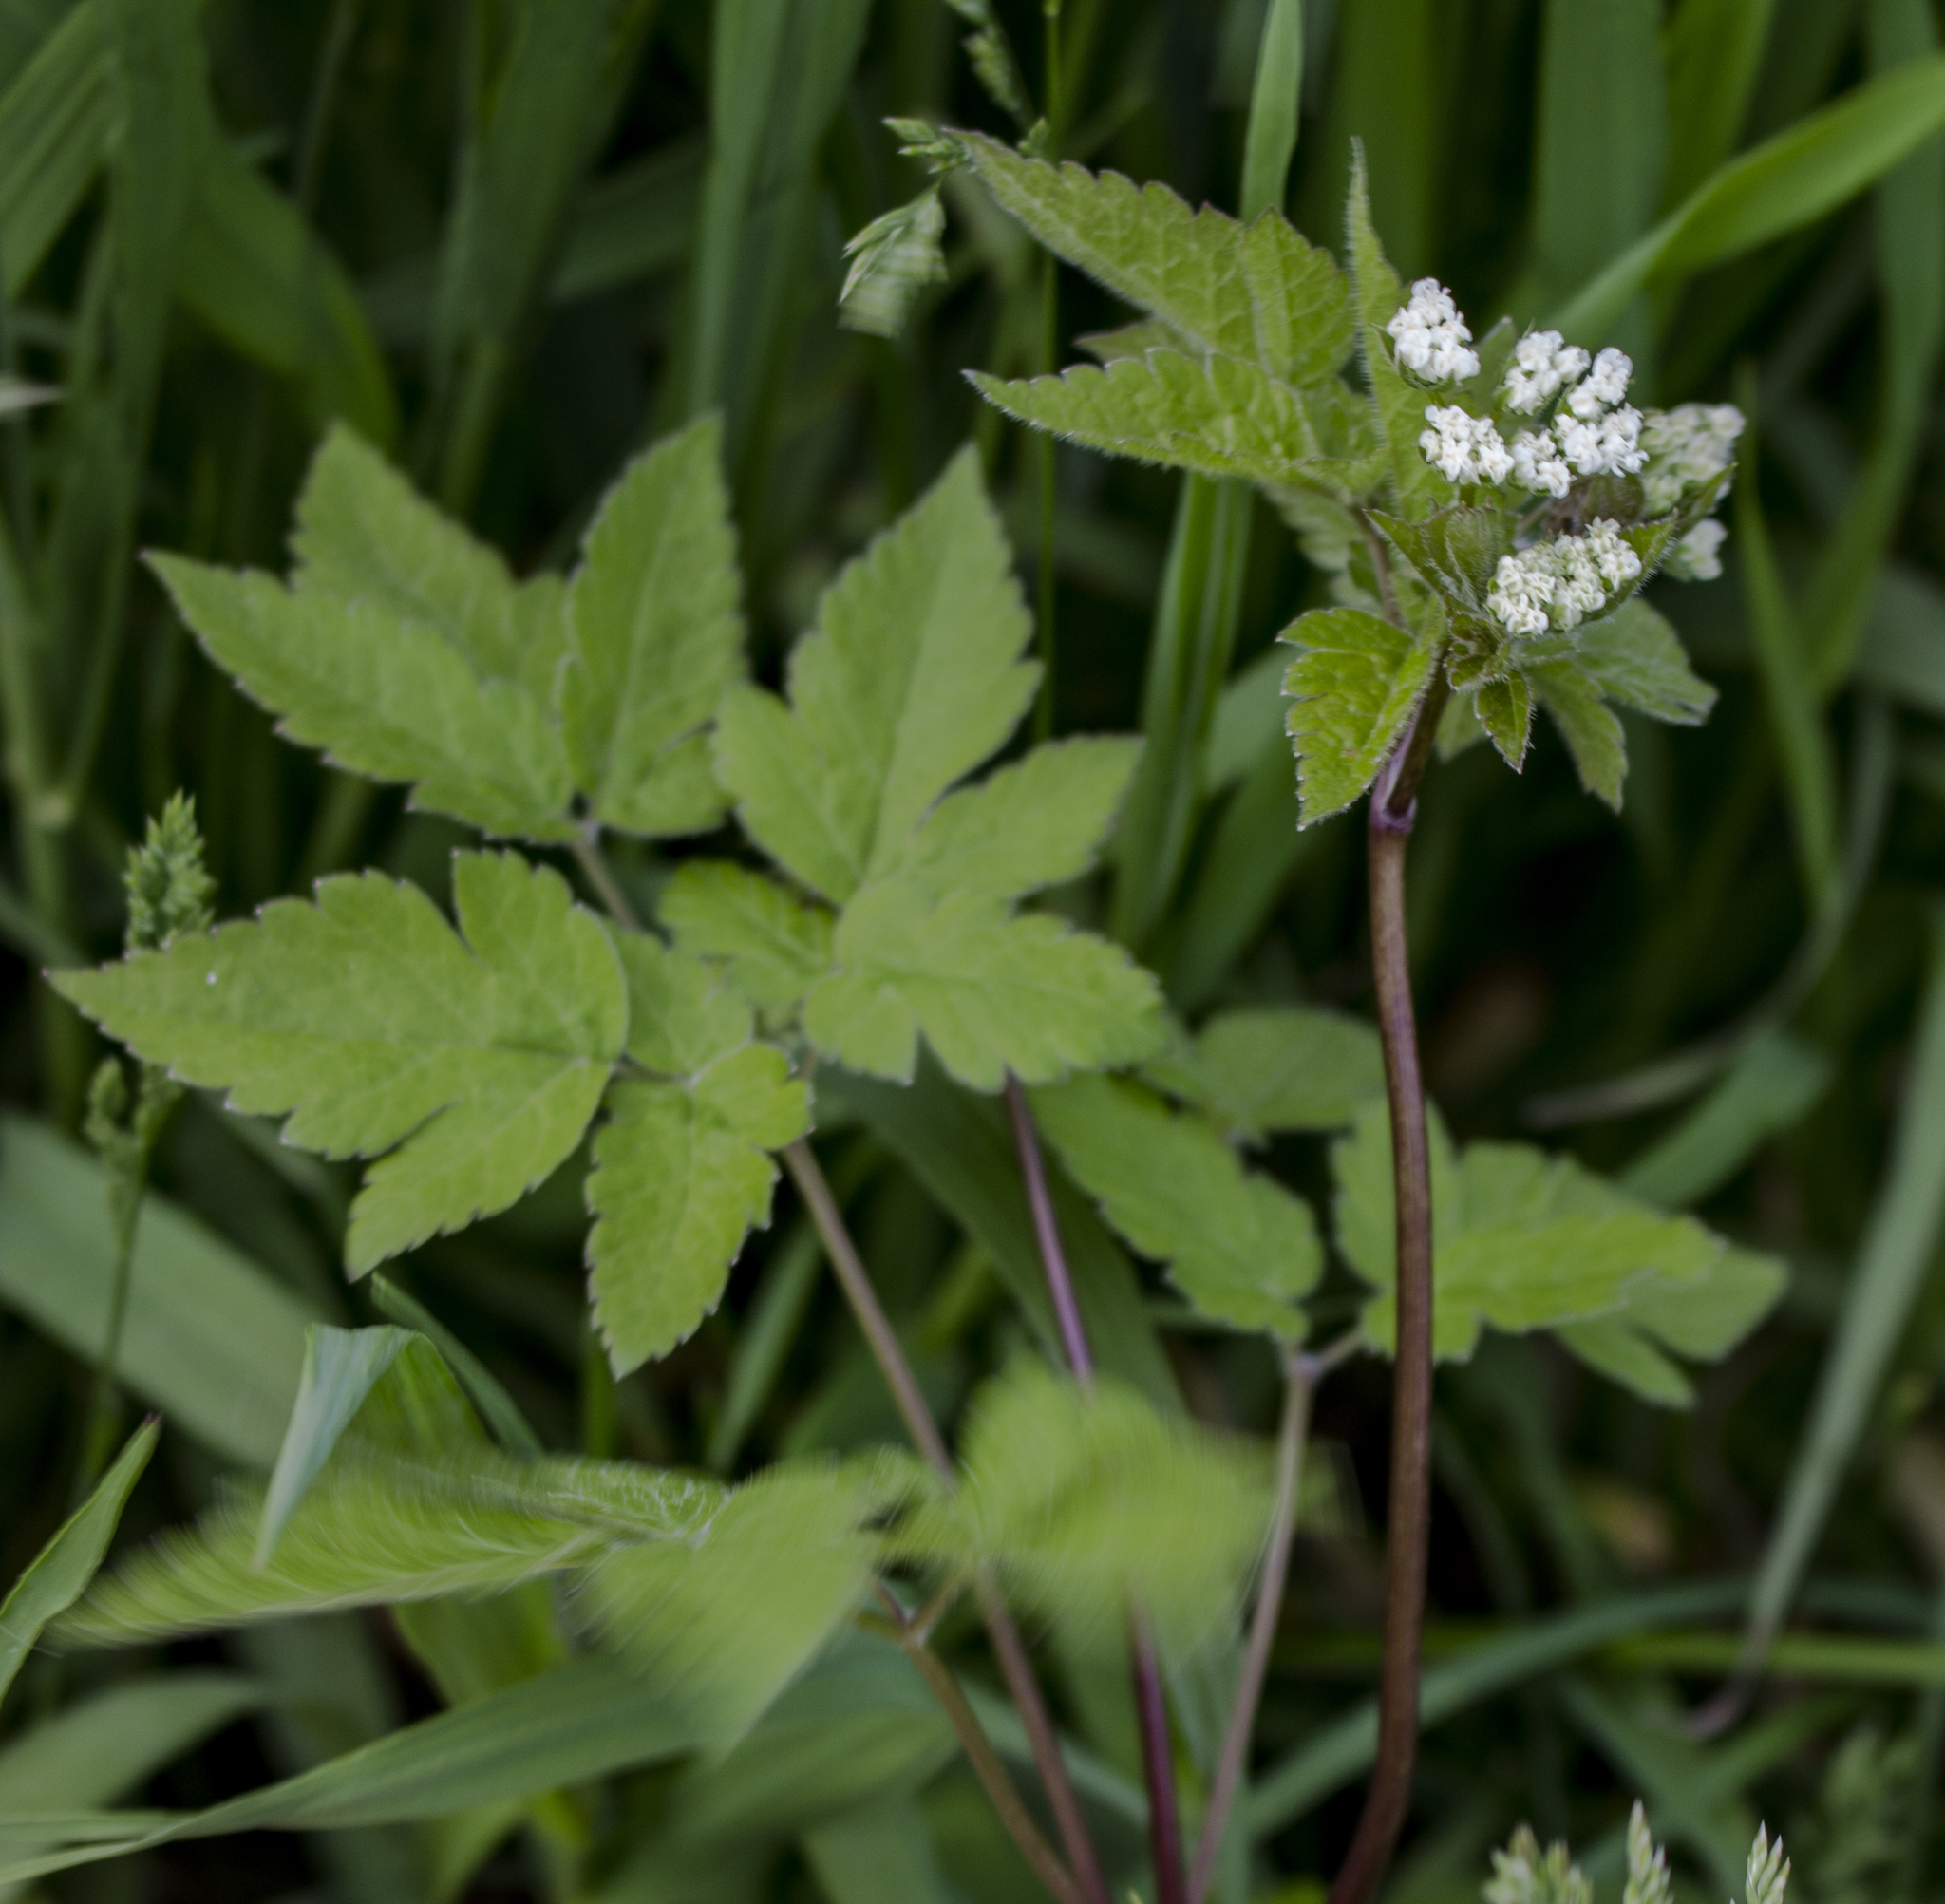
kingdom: Plantae
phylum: Tracheophyta
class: Magnoliopsida
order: Apiales
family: Apiaceae
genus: Osmorhiza
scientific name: Osmorhiza longistylis
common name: Smooth sweet cicely
